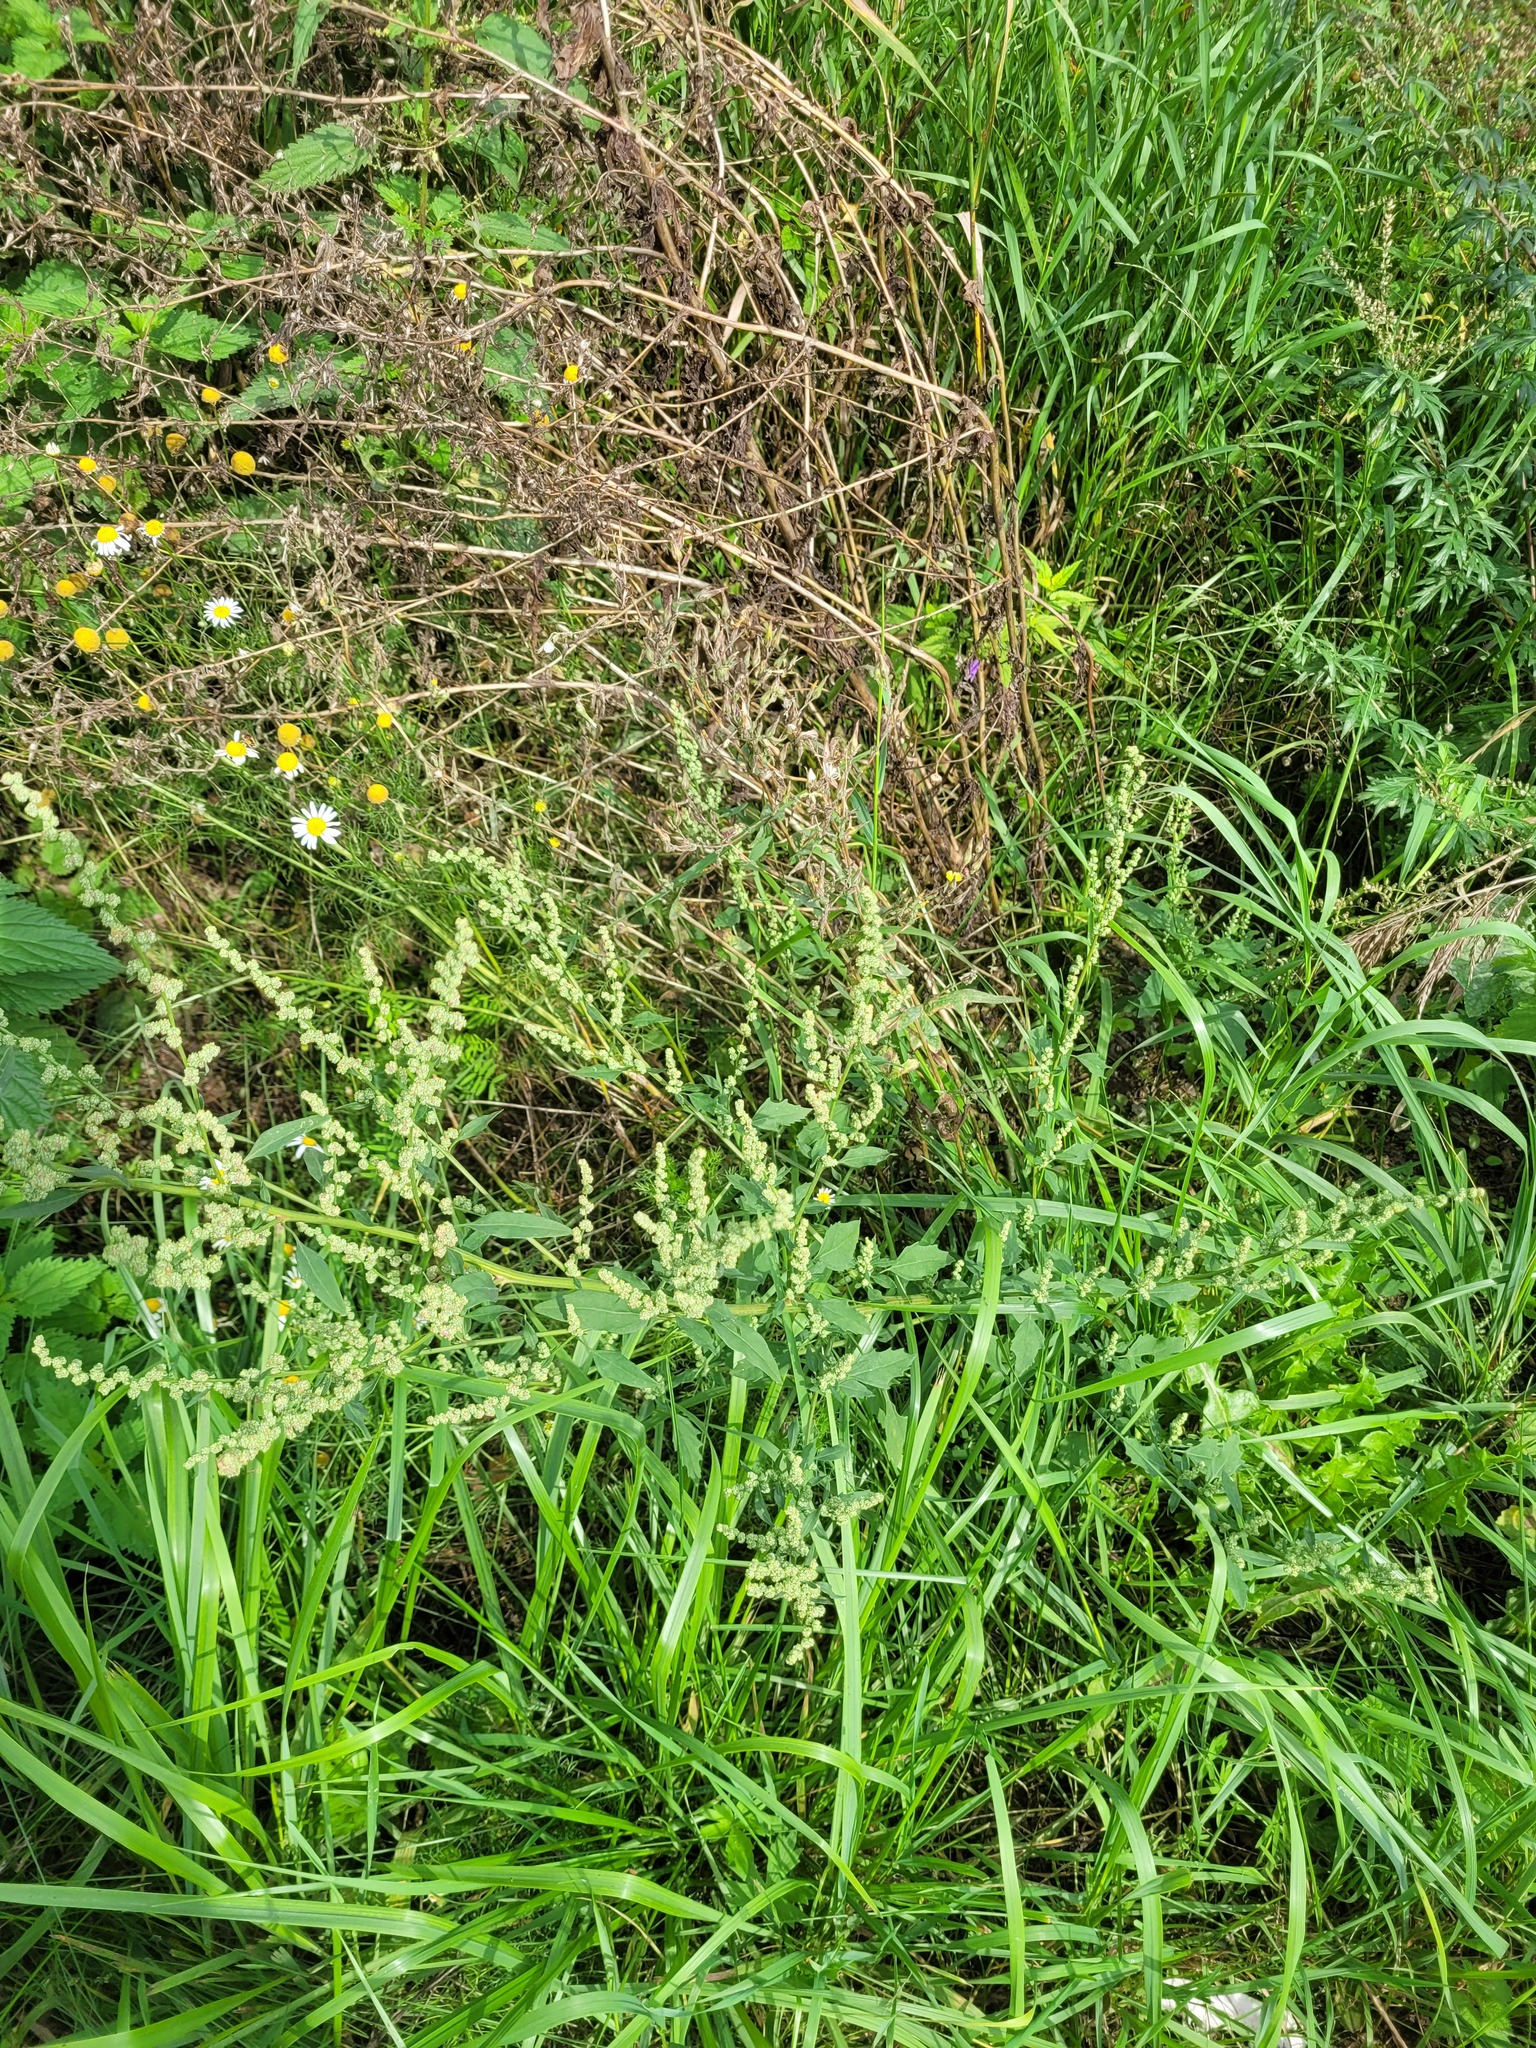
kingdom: Plantae
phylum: Tracheophyta
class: Magnoliopsida
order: Caryophyllales
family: Amaranthaceae
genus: Chenopodium
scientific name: Chenopodium album
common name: Fat-hen
